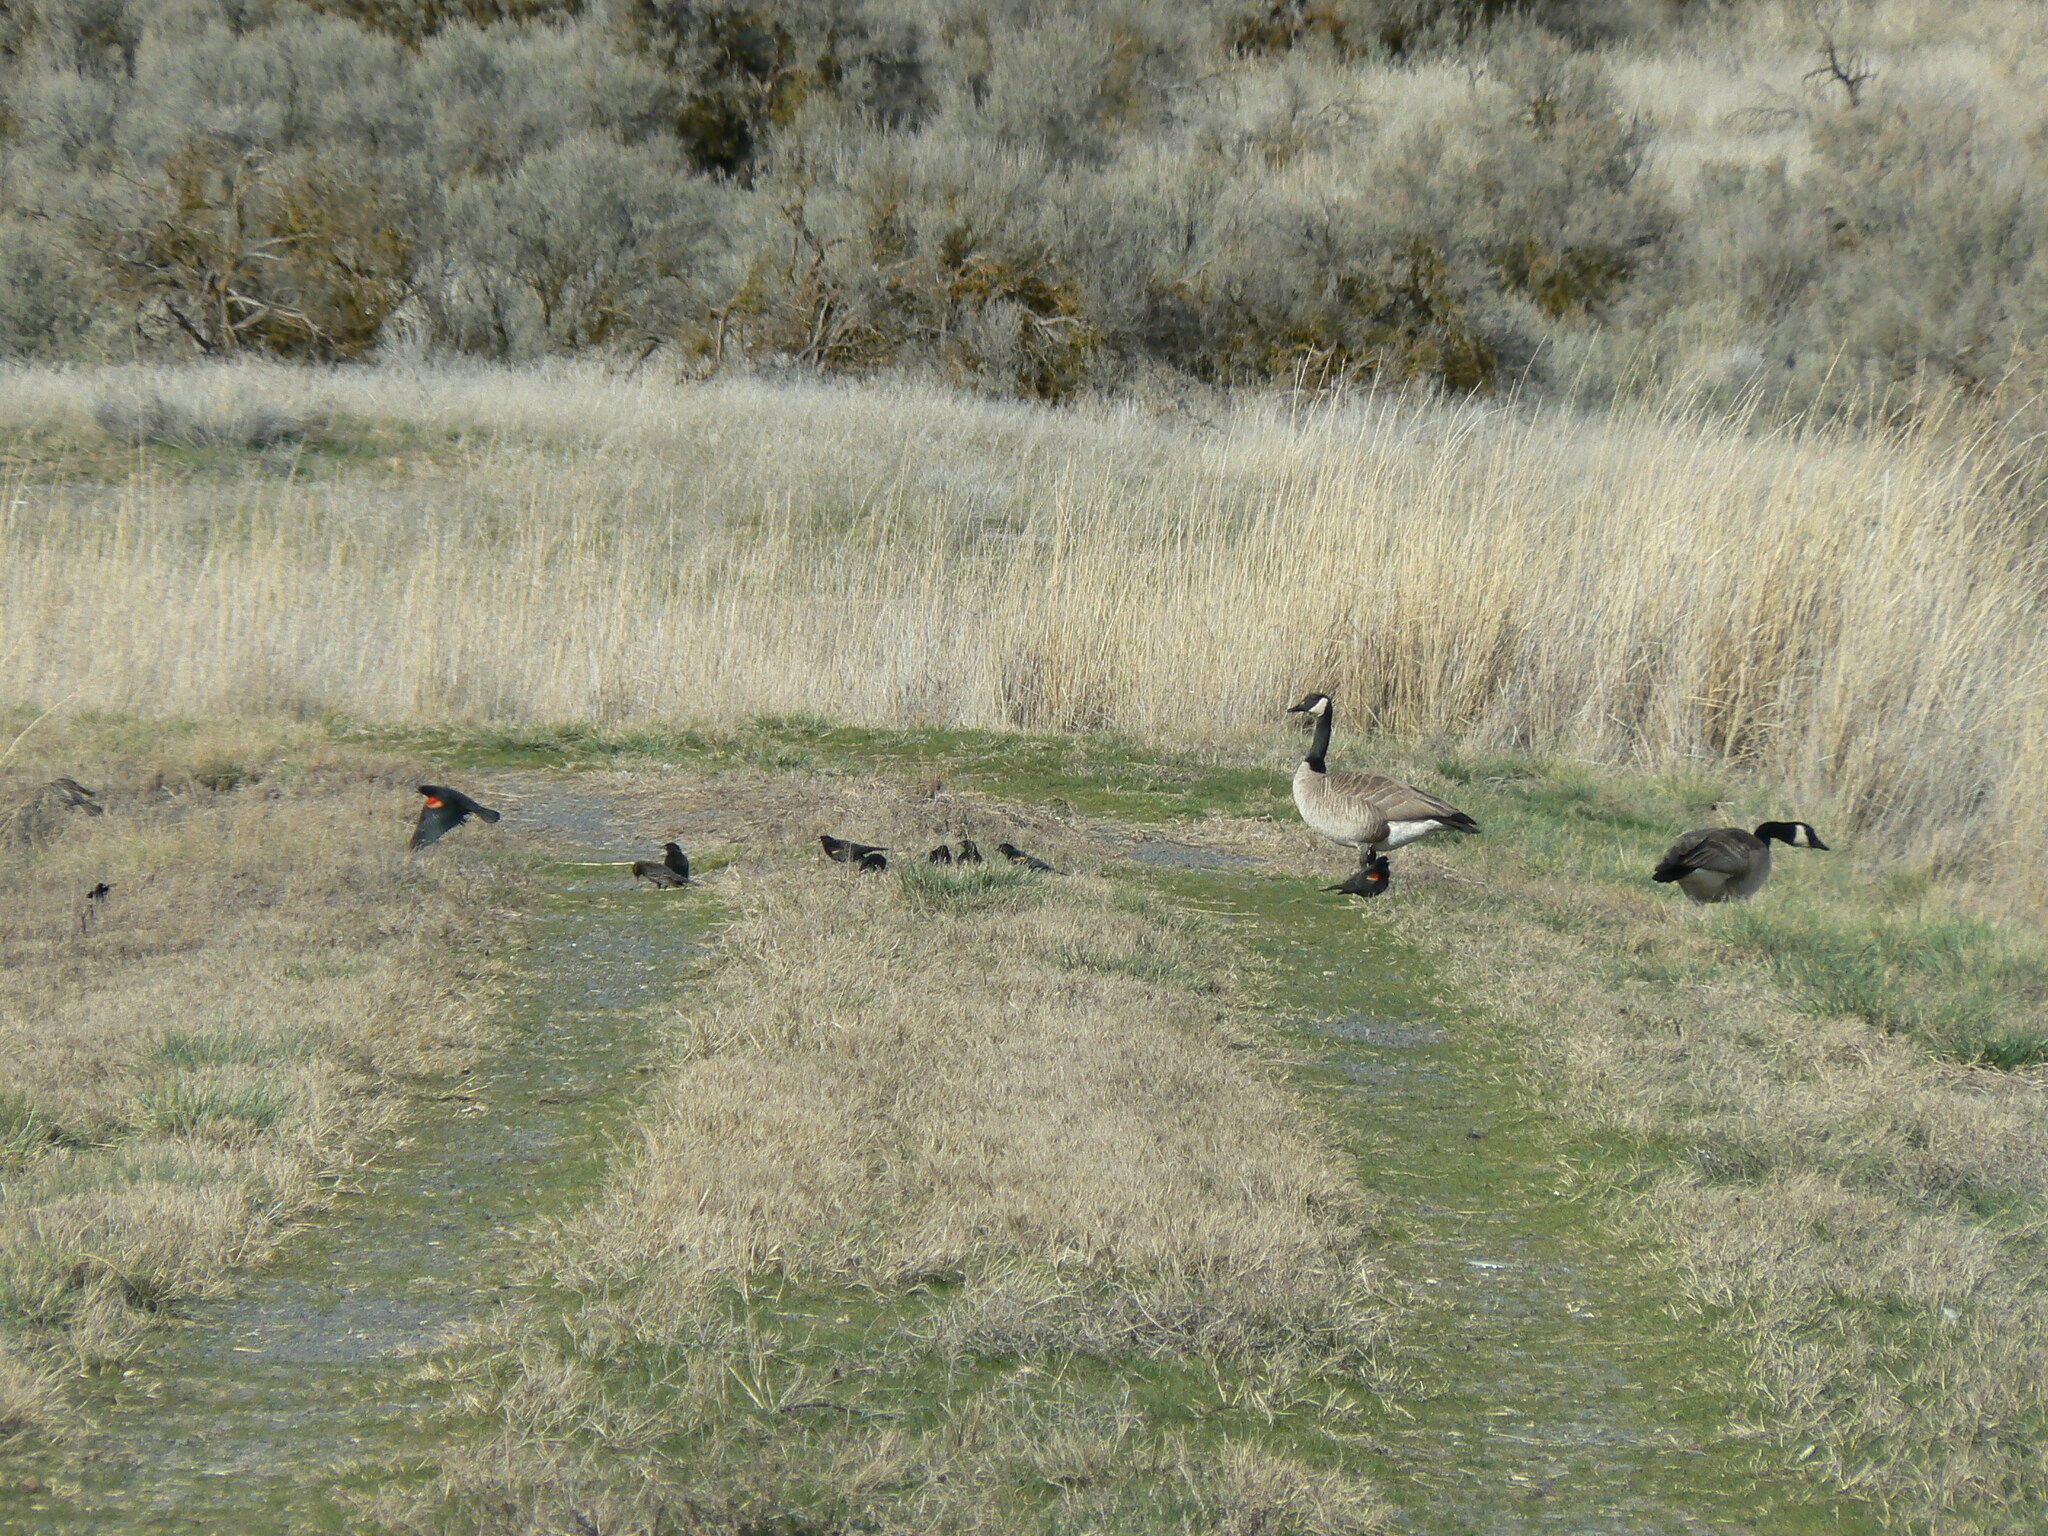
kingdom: Animalia
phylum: Chordata
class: Aves
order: Anseriformes
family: Anatidae
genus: Branta
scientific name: Branta canadensis
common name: Canada goose
